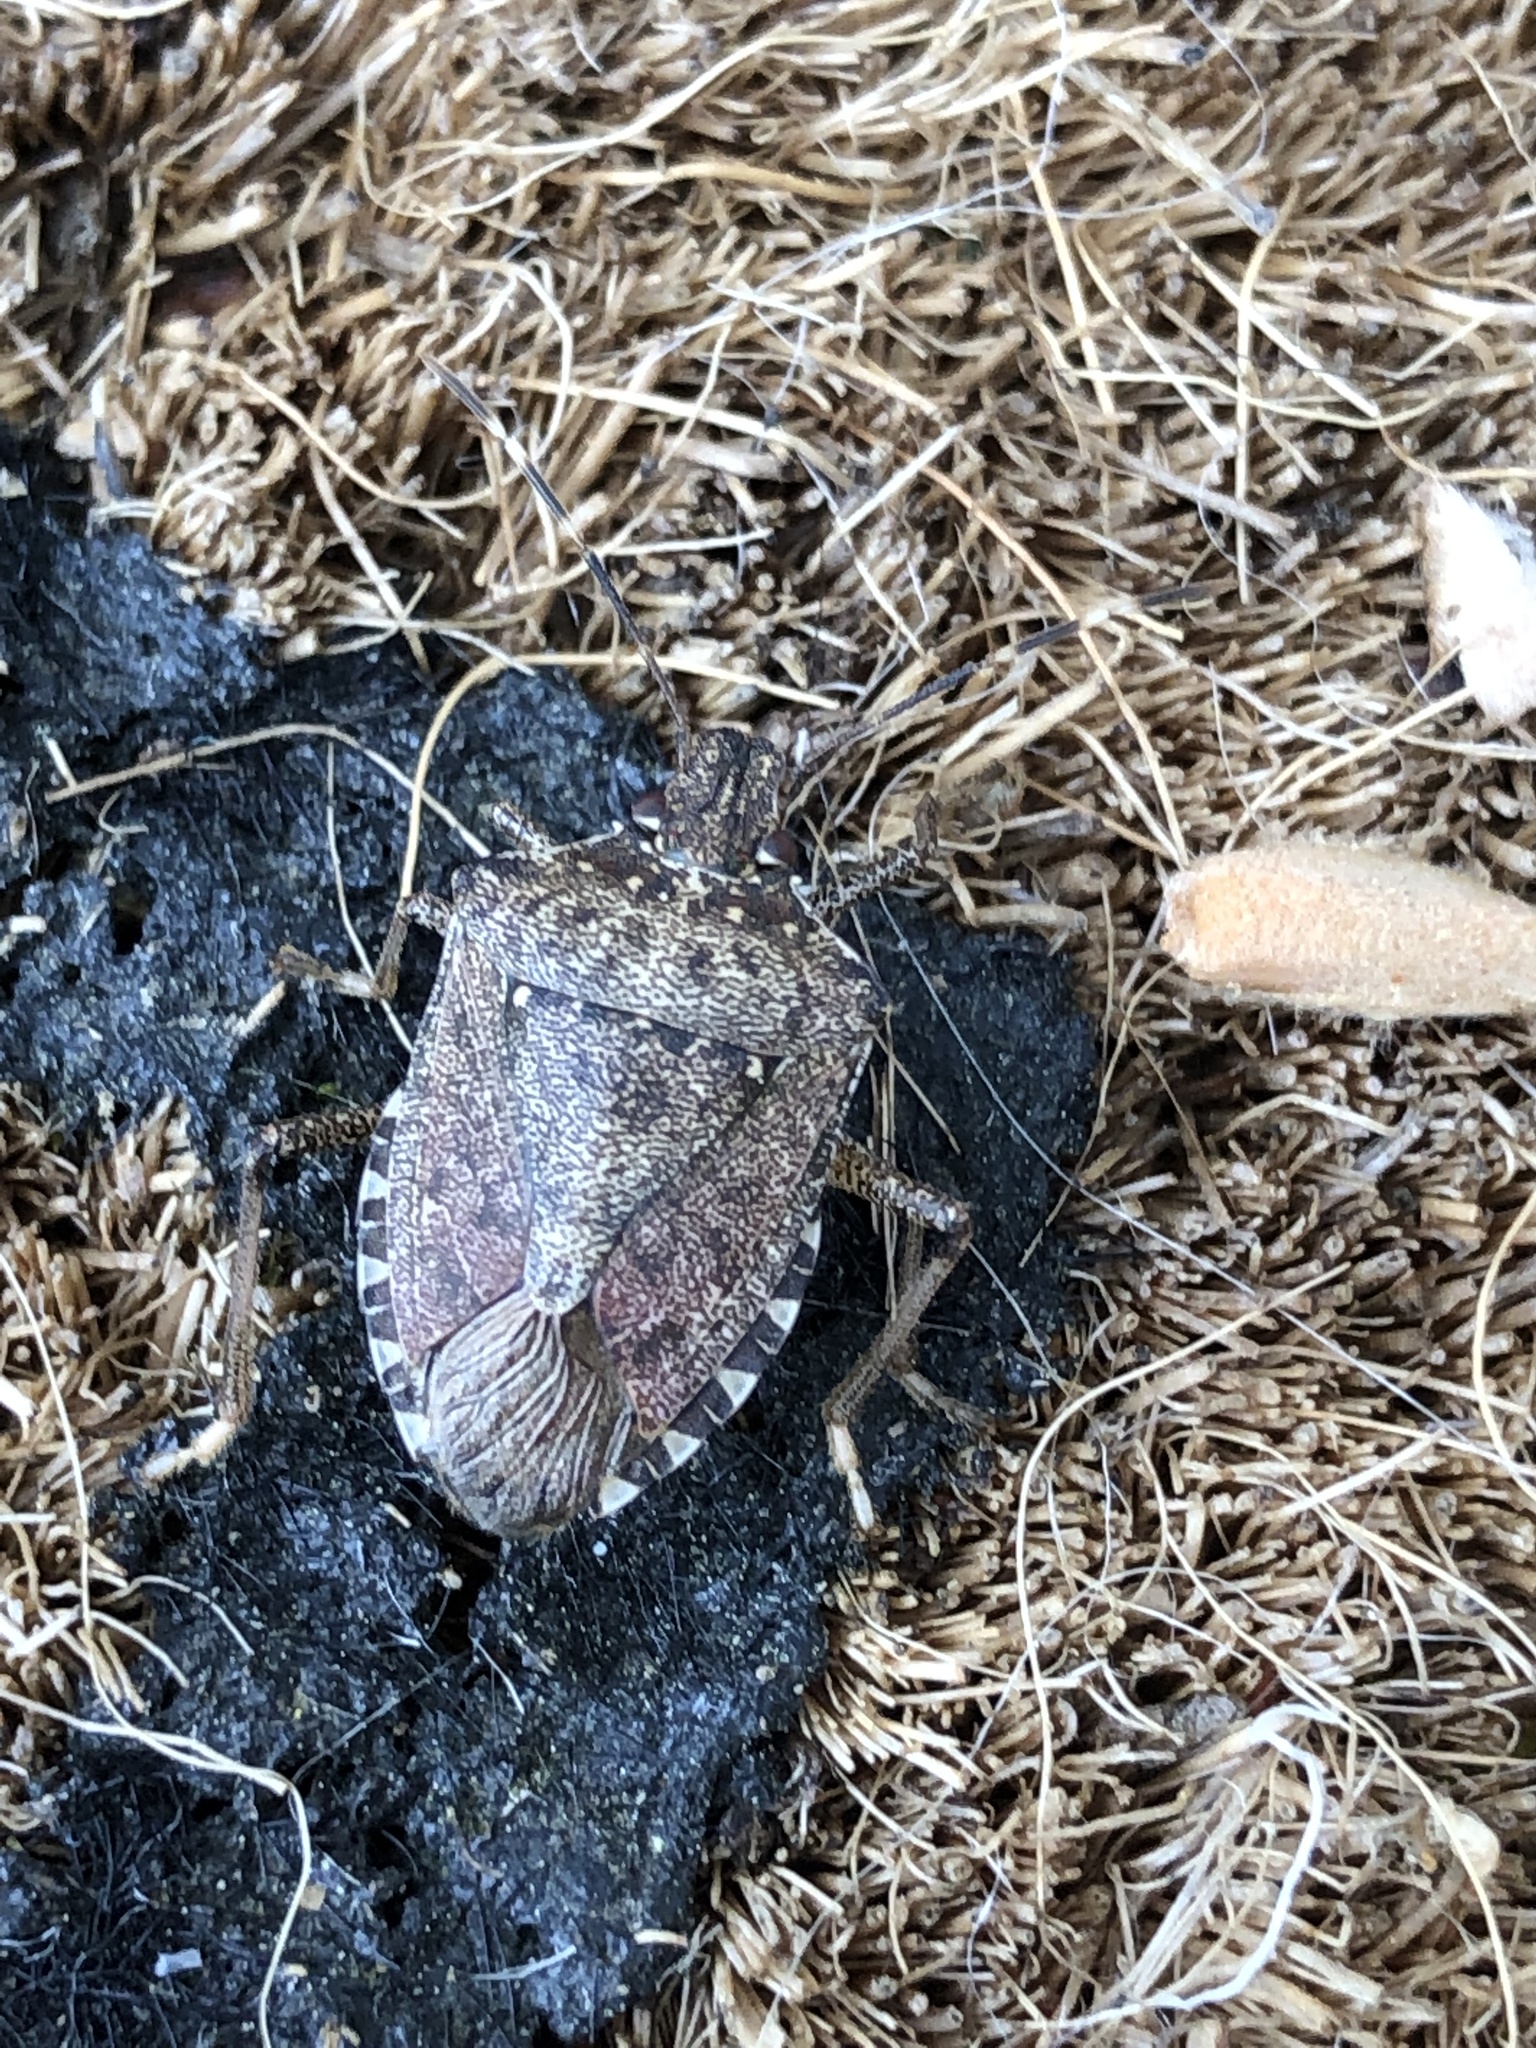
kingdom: Animalia
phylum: Arthropoda
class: Insecta
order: Hemiptera
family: Pentatomidae
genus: Halyomorpha
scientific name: Halyomorpha halys
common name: Brown marmorated stink bug
